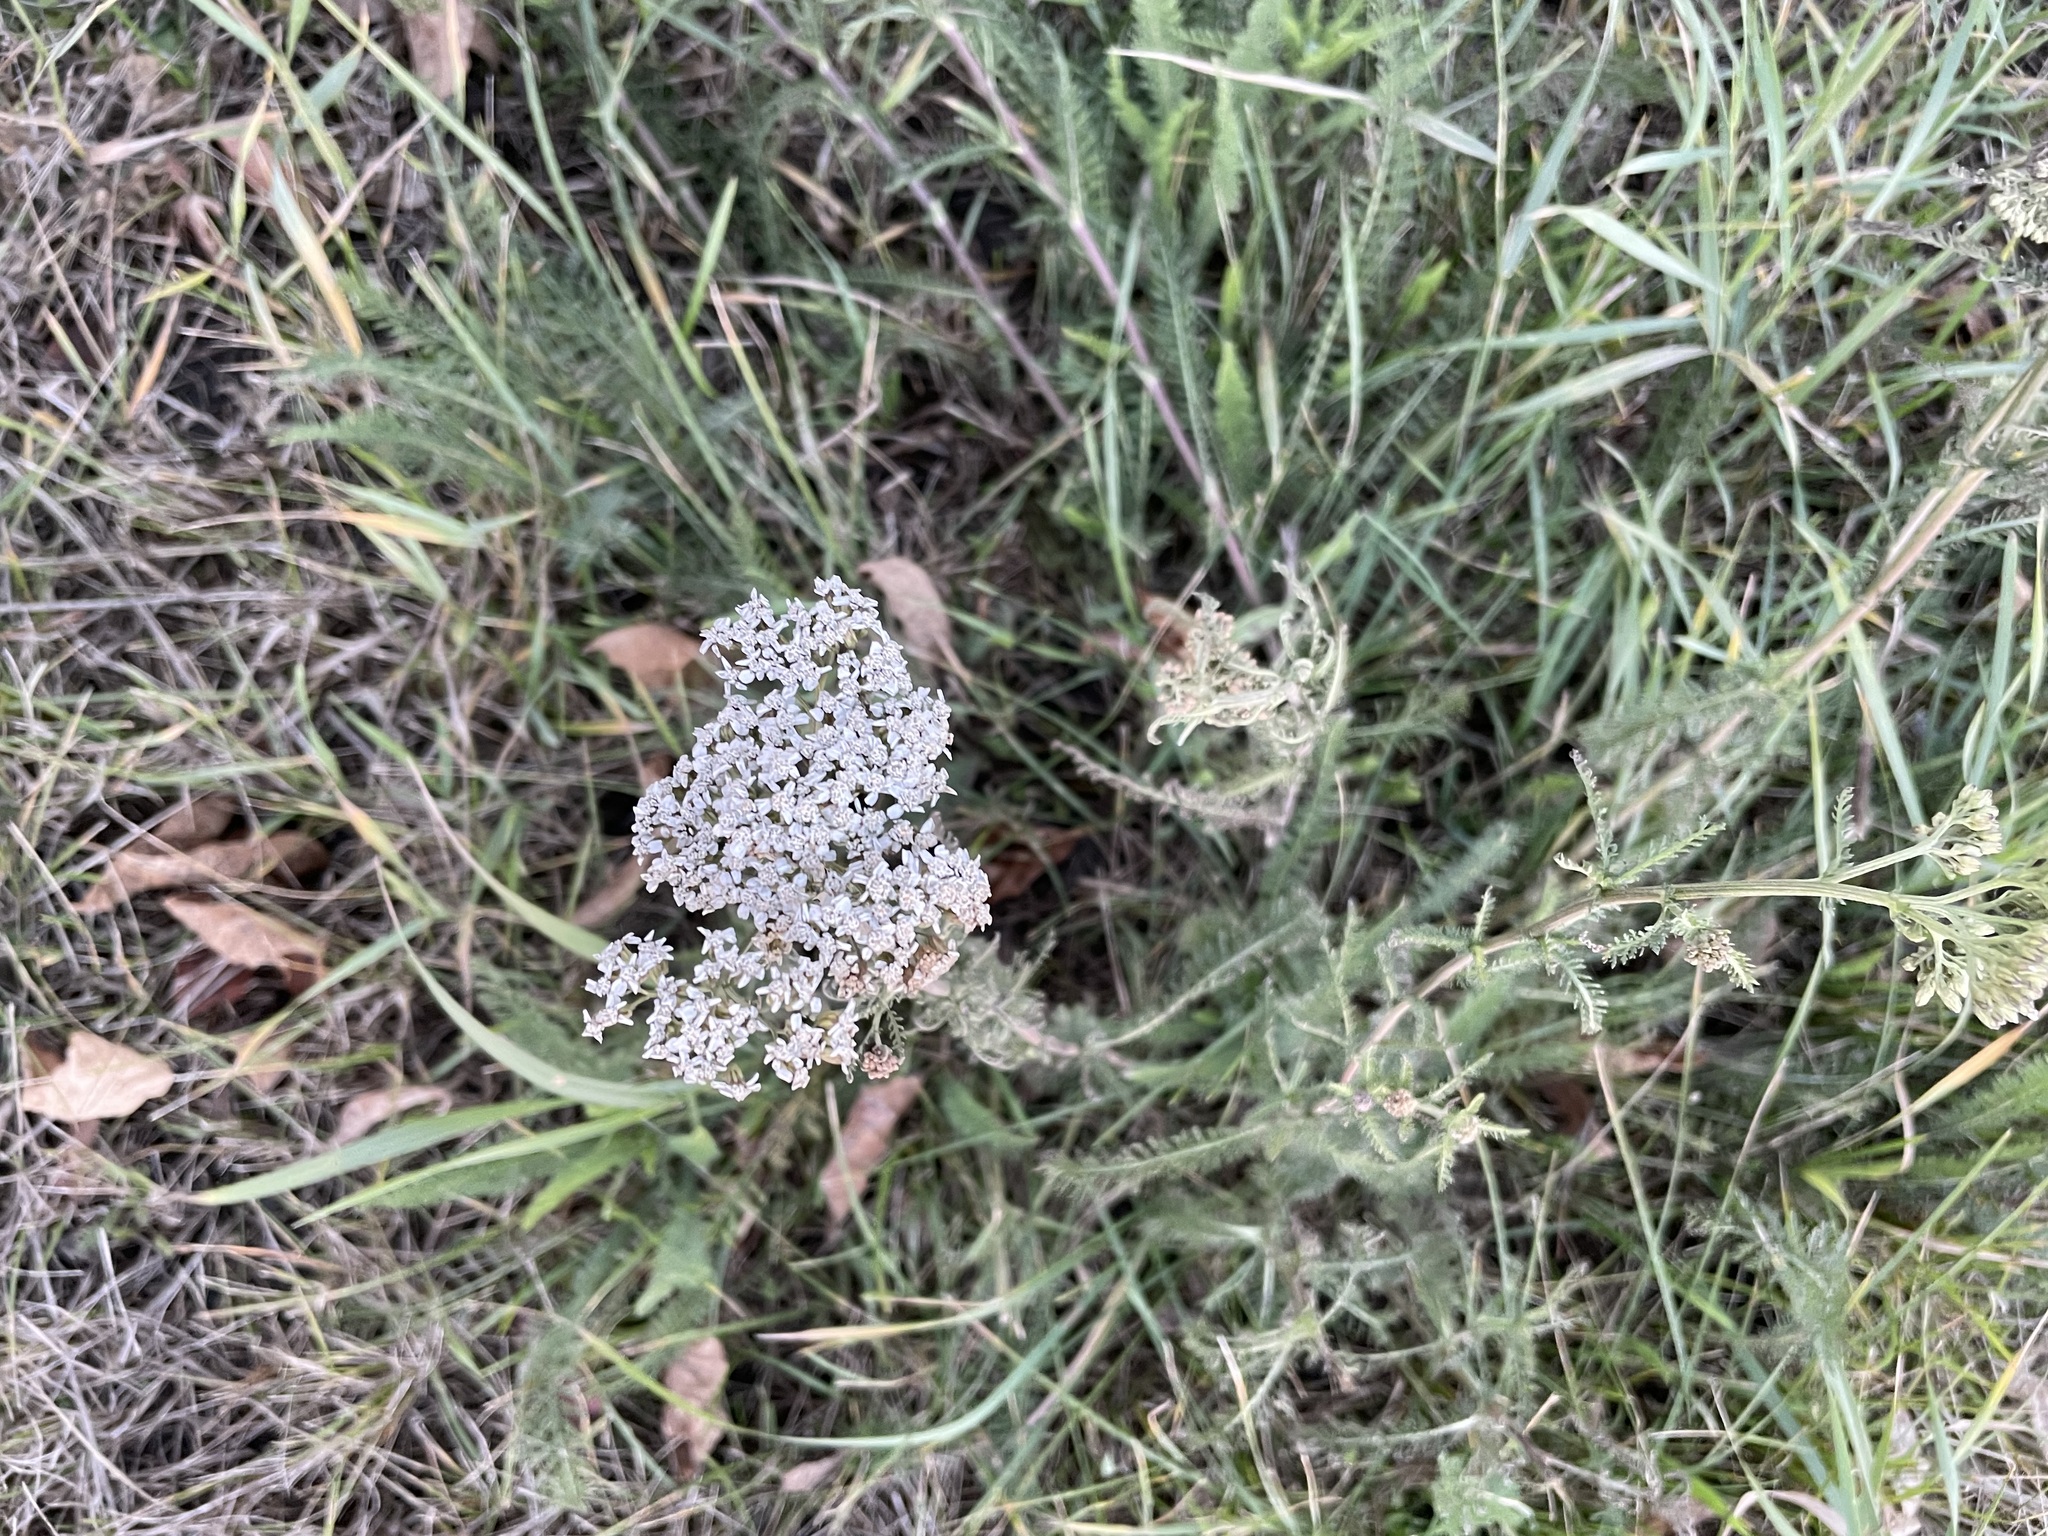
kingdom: Plantae
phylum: Tracheophyta
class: Magnoliopsida
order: Asterales
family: Asteraceae
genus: Achillea
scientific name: Achillea millefolium
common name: Yarrow
